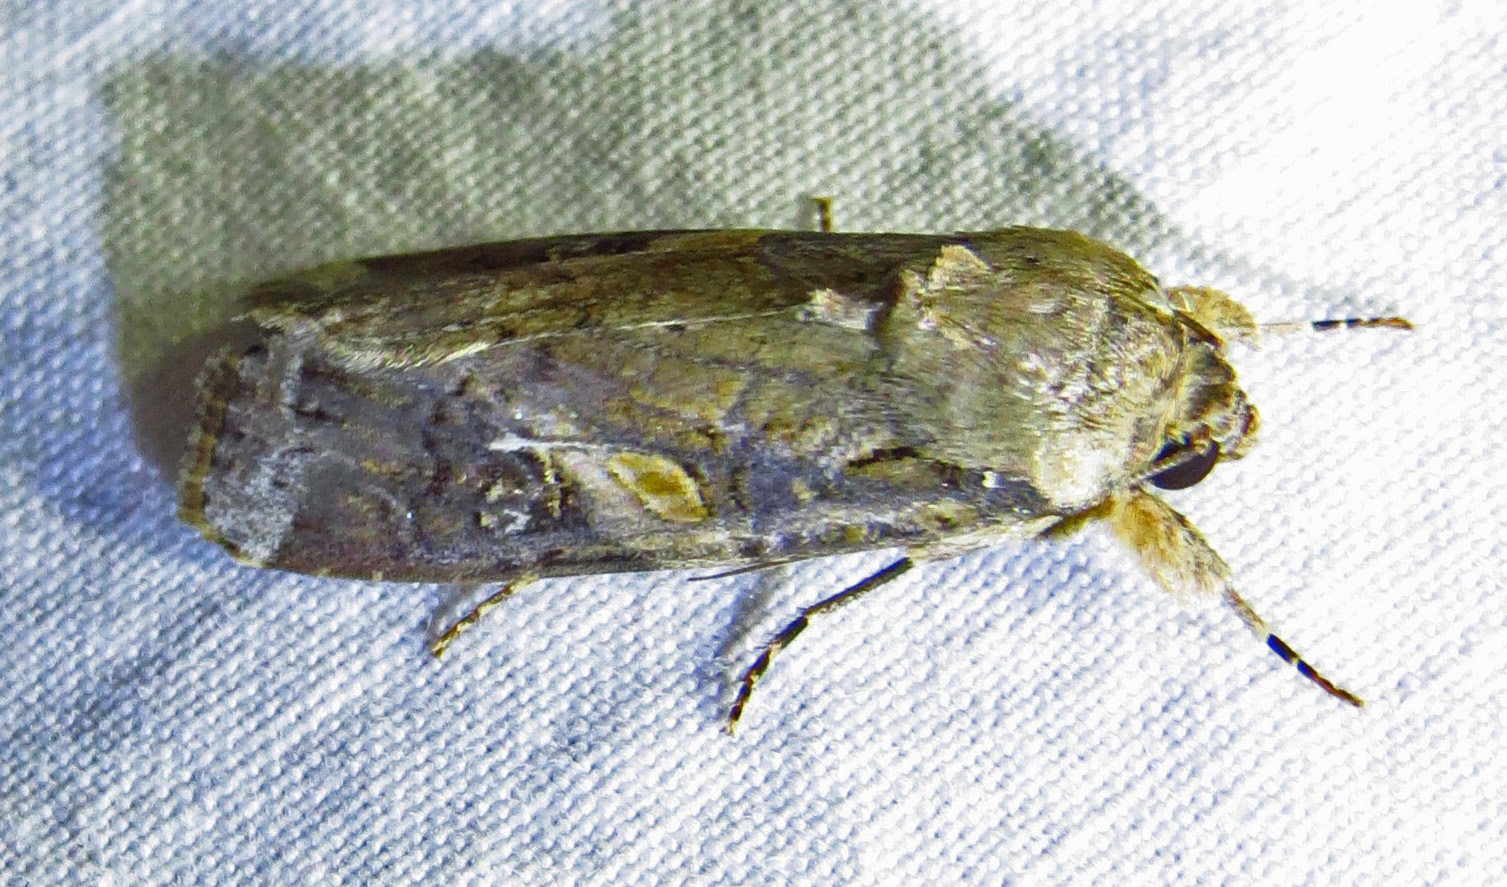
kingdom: Animalia
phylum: Arthropoda
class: Insecta
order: Lepidoptera
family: Noctuidae
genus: Spodoptera
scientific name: Spodoptera frugiperda
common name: Fall armyworm
